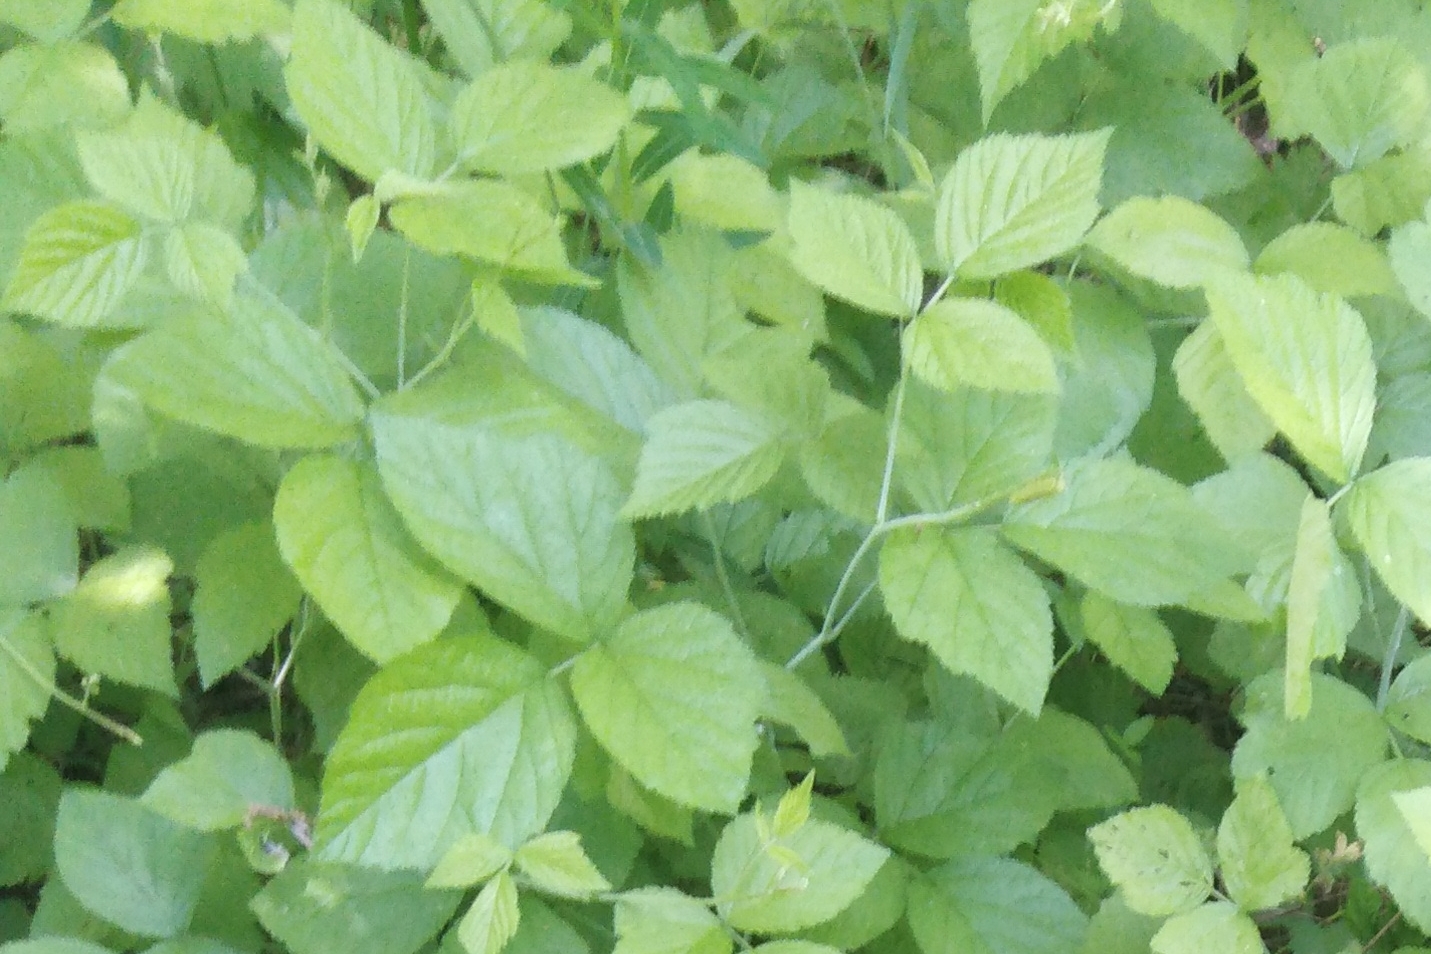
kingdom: Plantae
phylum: Tracheophyta
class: Magnoliopsida
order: Rosales
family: Rosaceae
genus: Rubus
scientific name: Rubus caesius
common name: Dewberry
